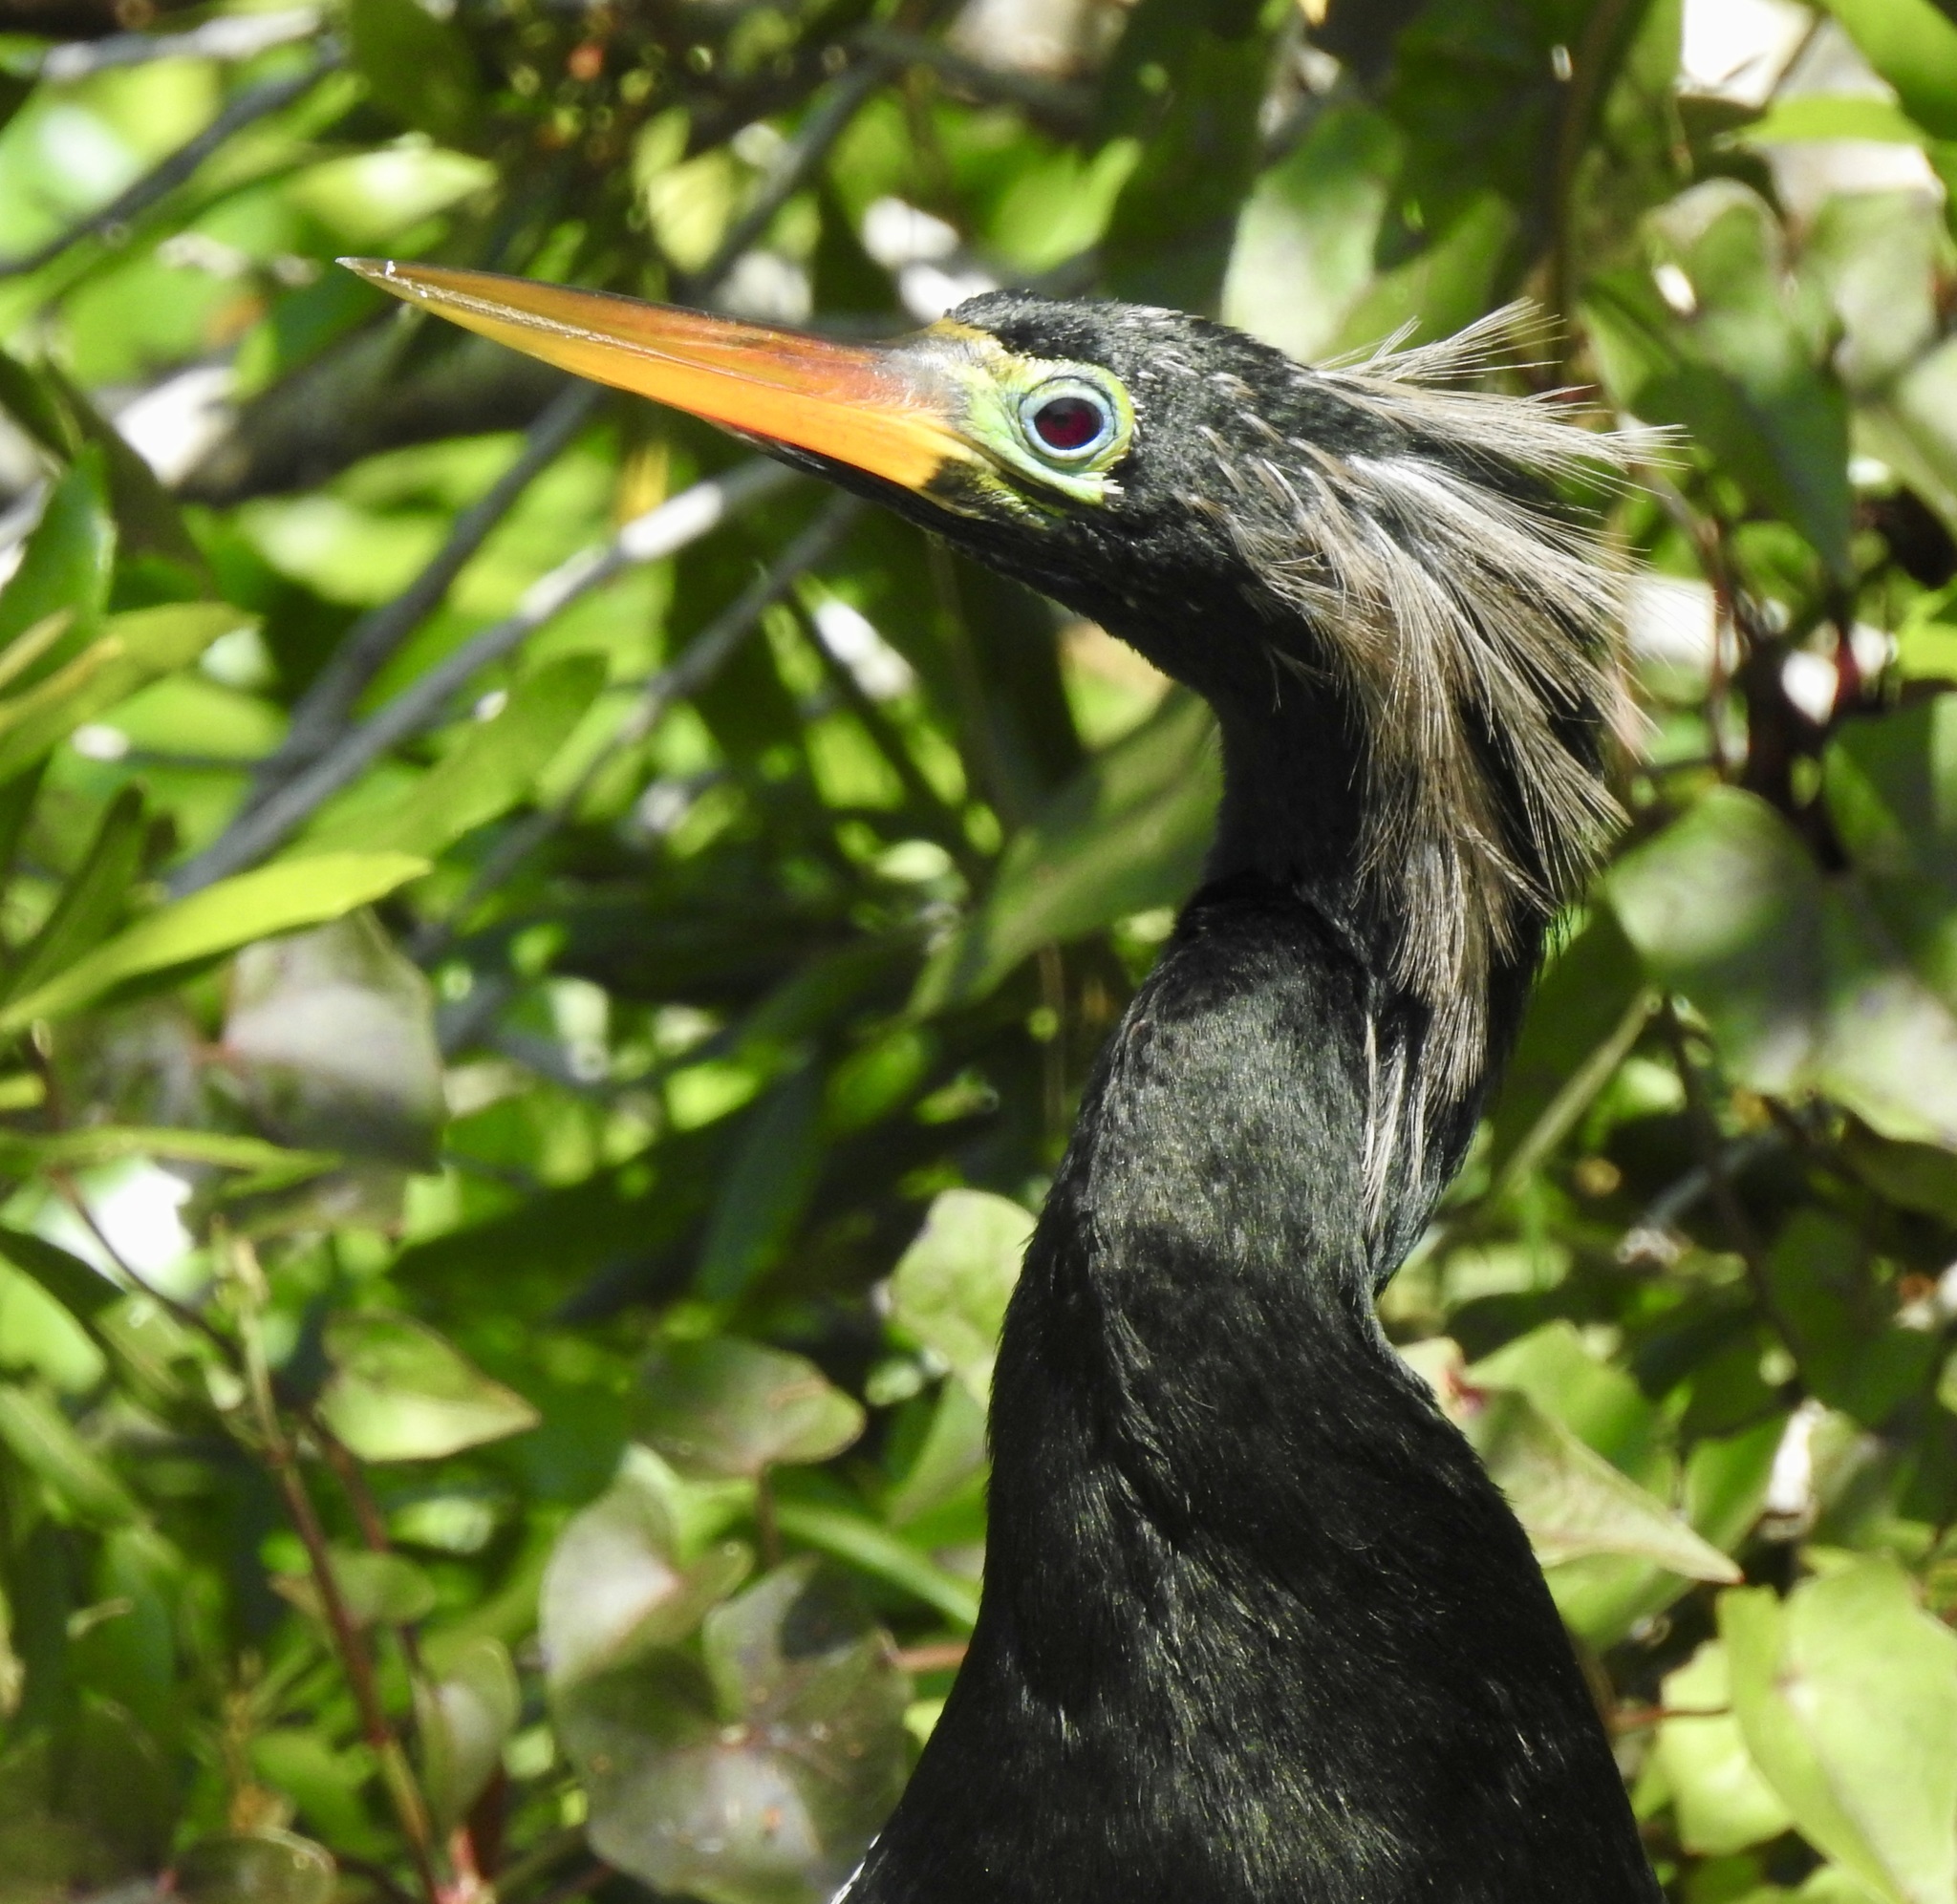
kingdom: Animalia
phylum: Chordata
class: Aves
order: Suliformes
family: Anhingidae
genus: Anhinga
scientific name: Anhinga anhinga
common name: Anhinga
